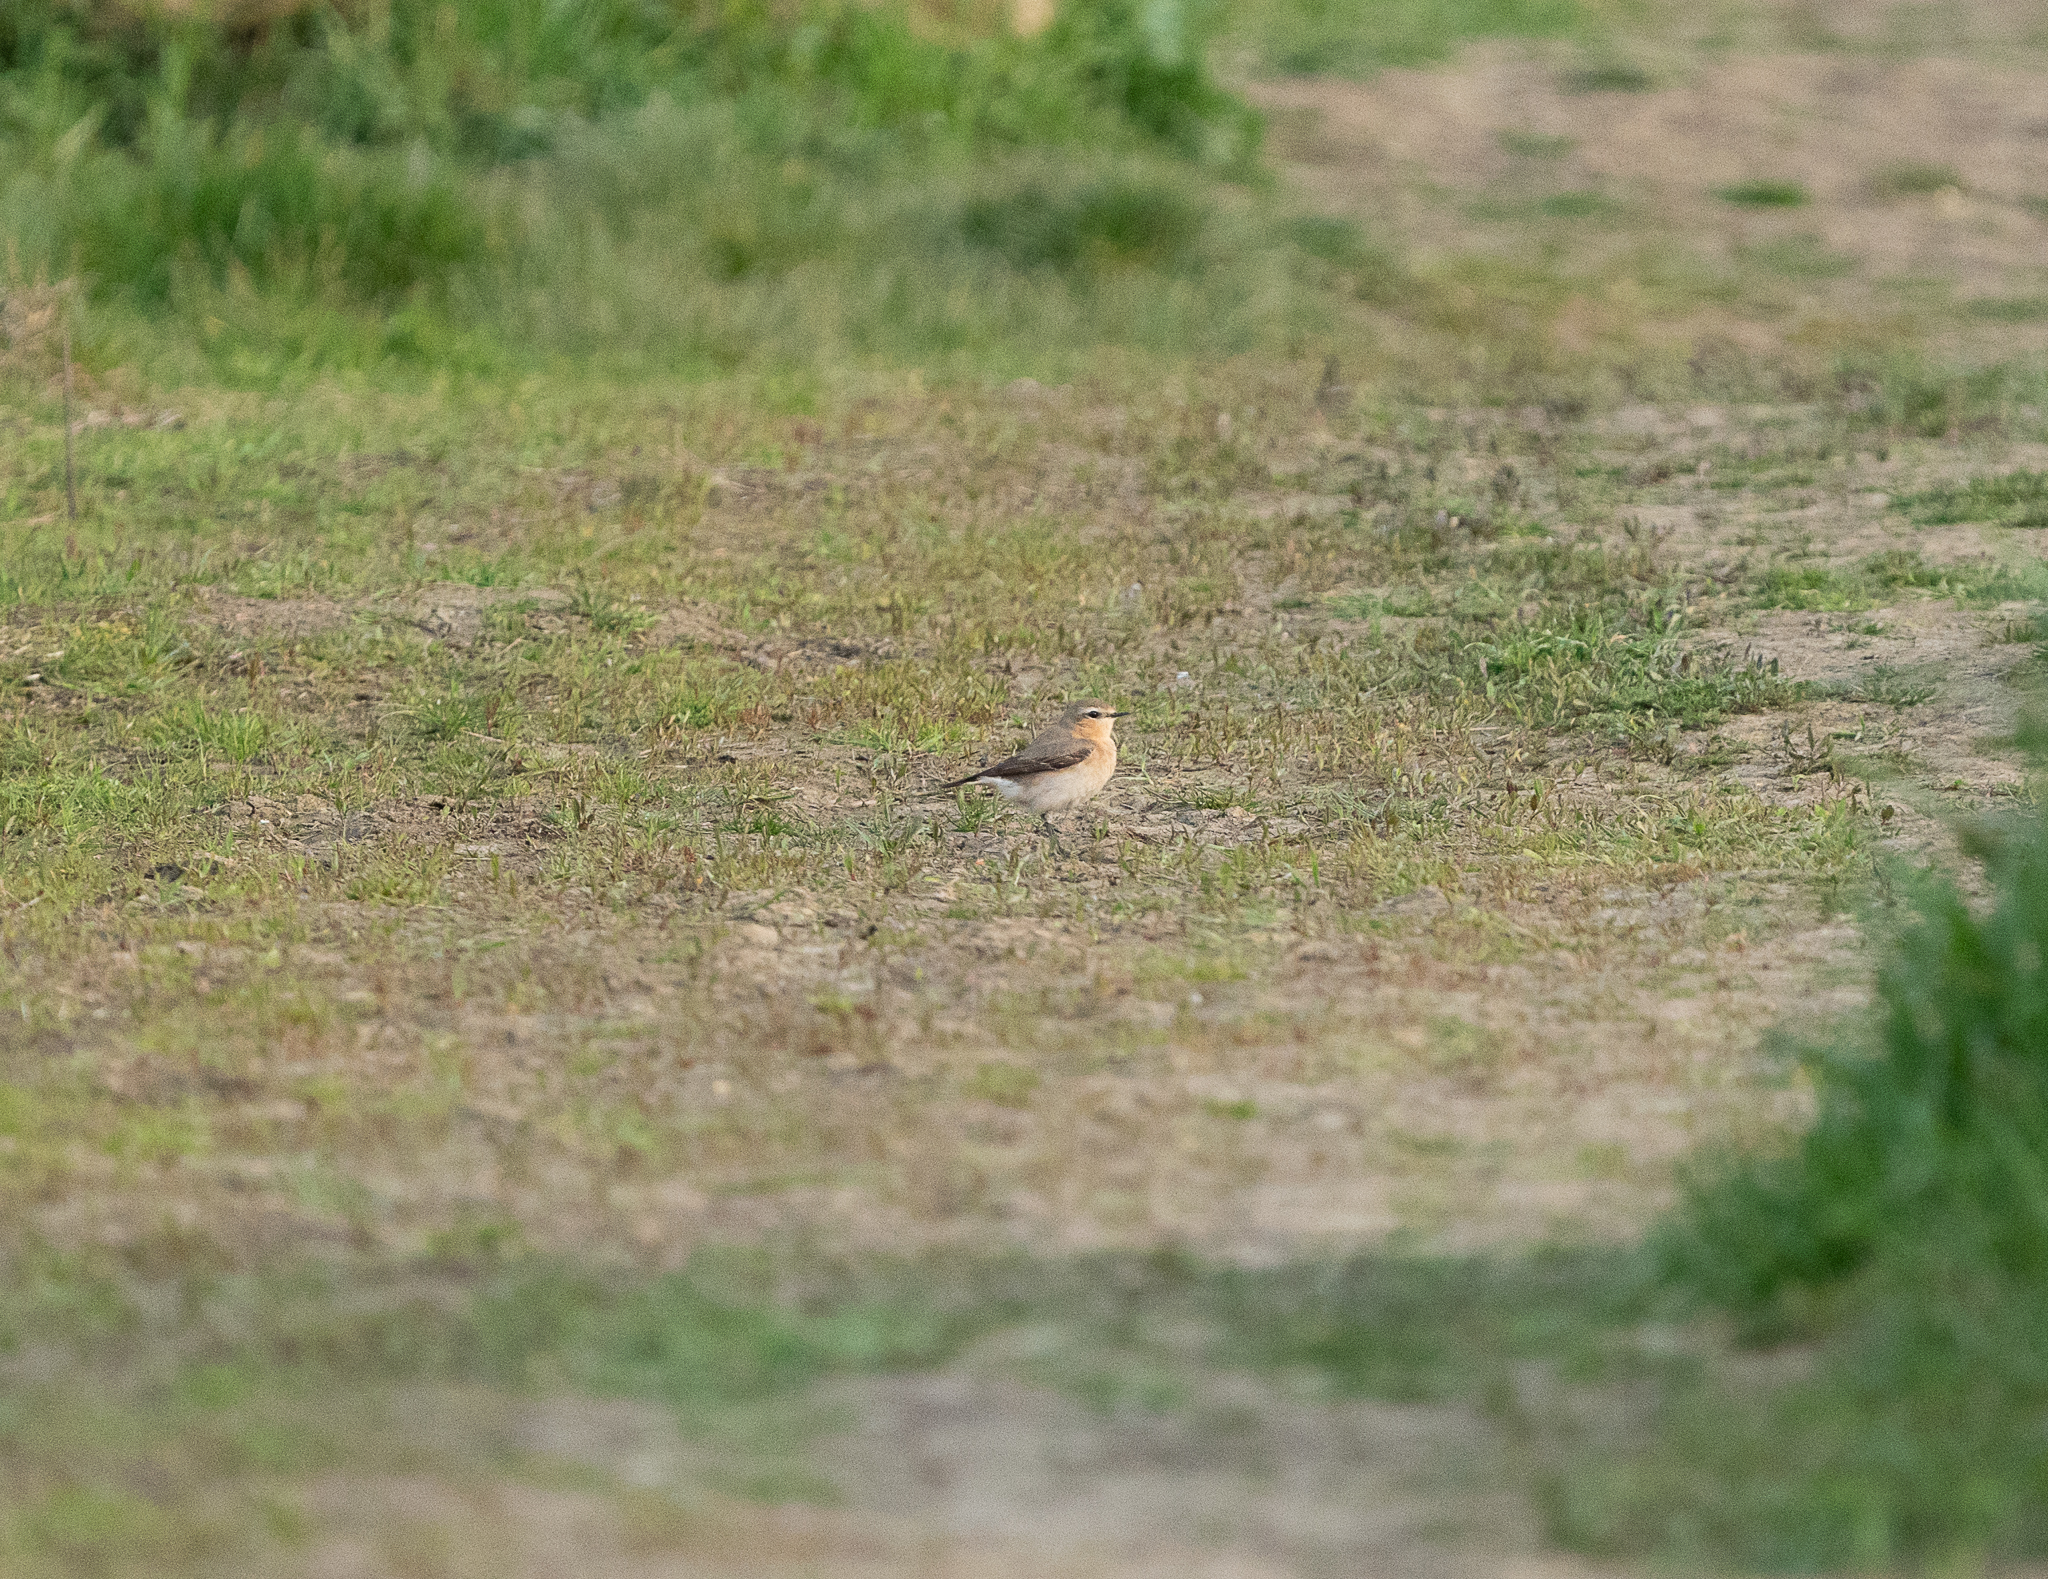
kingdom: Animalia
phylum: Chordata
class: Aves
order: Passeriformes
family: Muscicapidae
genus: Oenanthe
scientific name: Oenanthe oenanthe
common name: Northern wheatear
